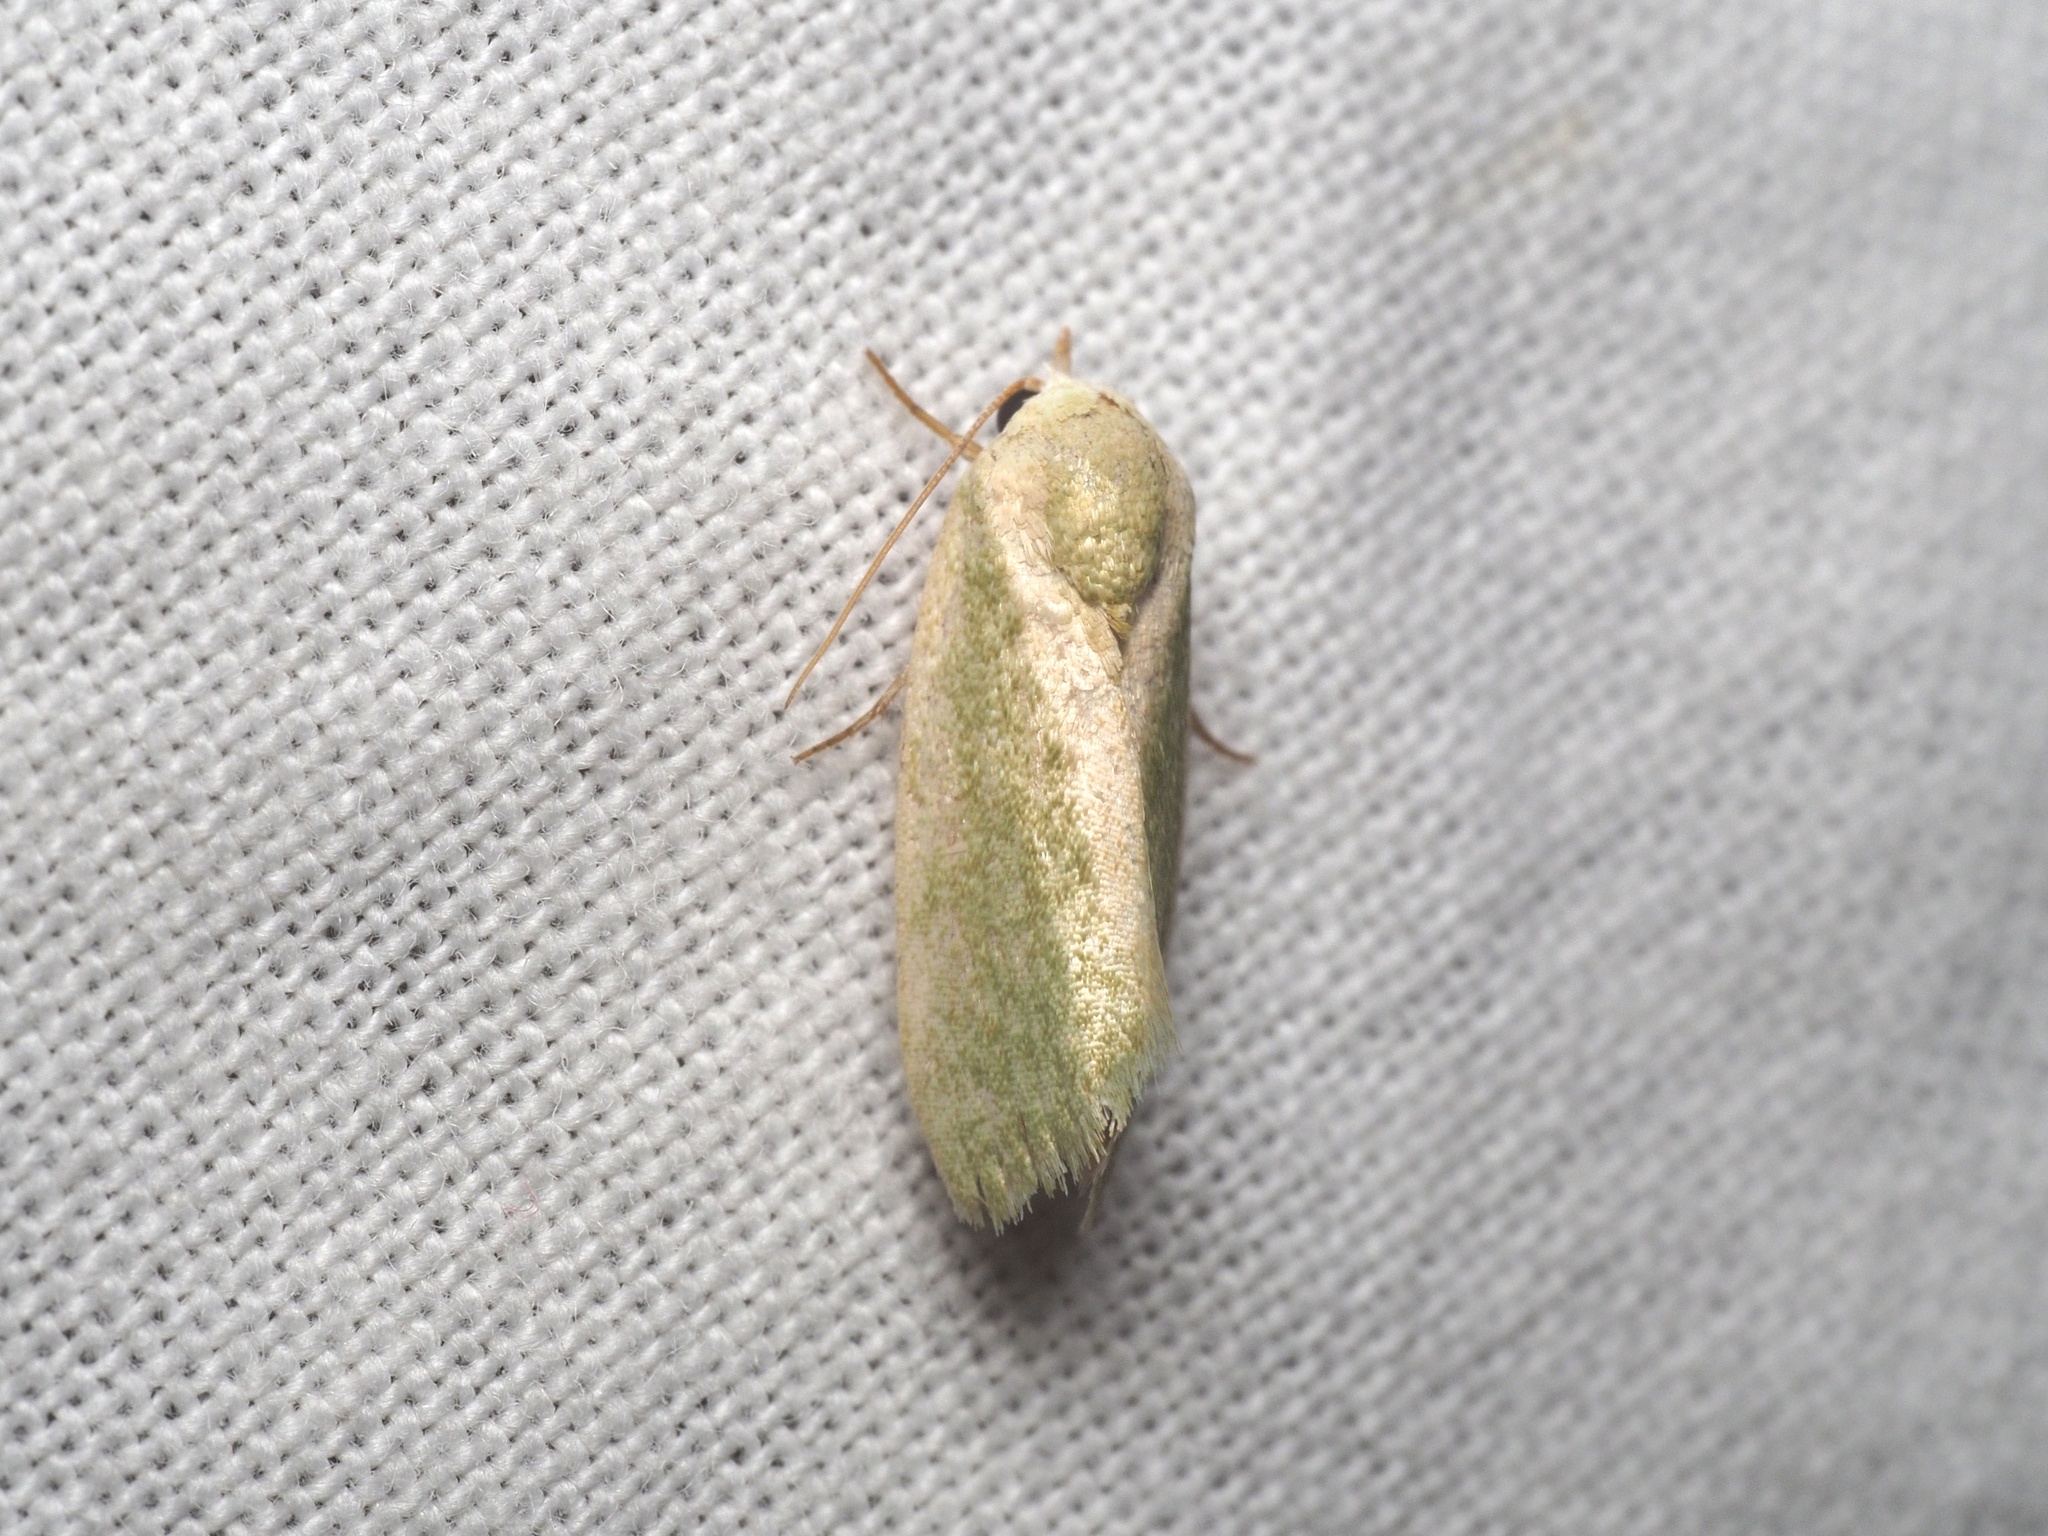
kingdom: Animalia
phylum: Arthropoda
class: Insecta
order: Lepidoptera
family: Nolidae
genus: Earias
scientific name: Earias insulana
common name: Egyptian bollworm
